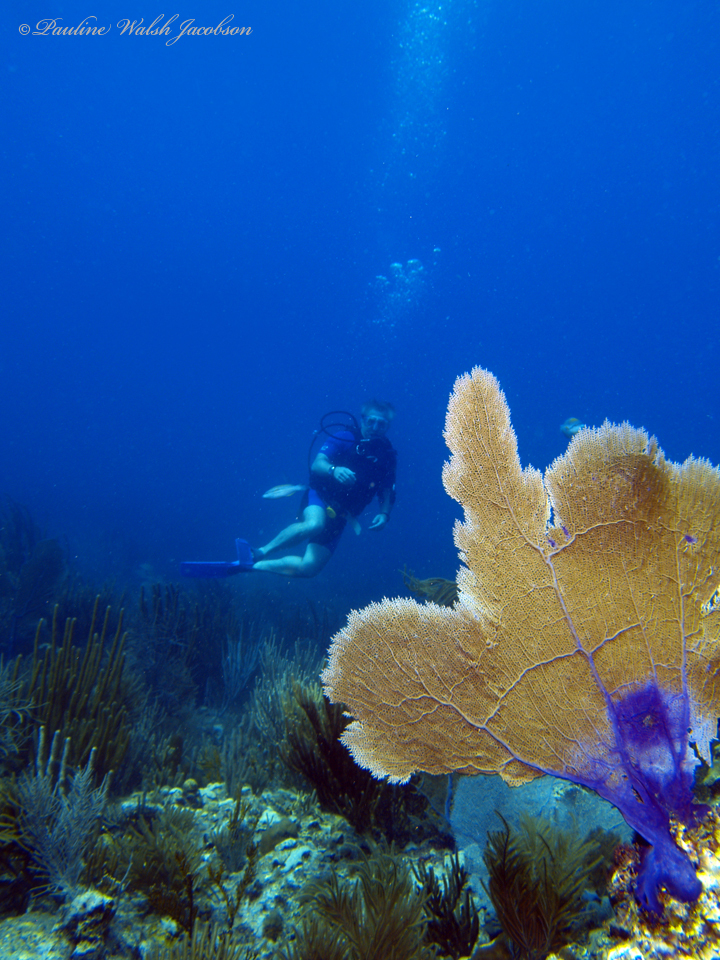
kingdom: Animalia
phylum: Cnidaria
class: Anthozoa
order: Malacalcyonacea
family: Gorgoniidae
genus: Gorgonia
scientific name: Gorgonia ventalina
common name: Common sea fan
